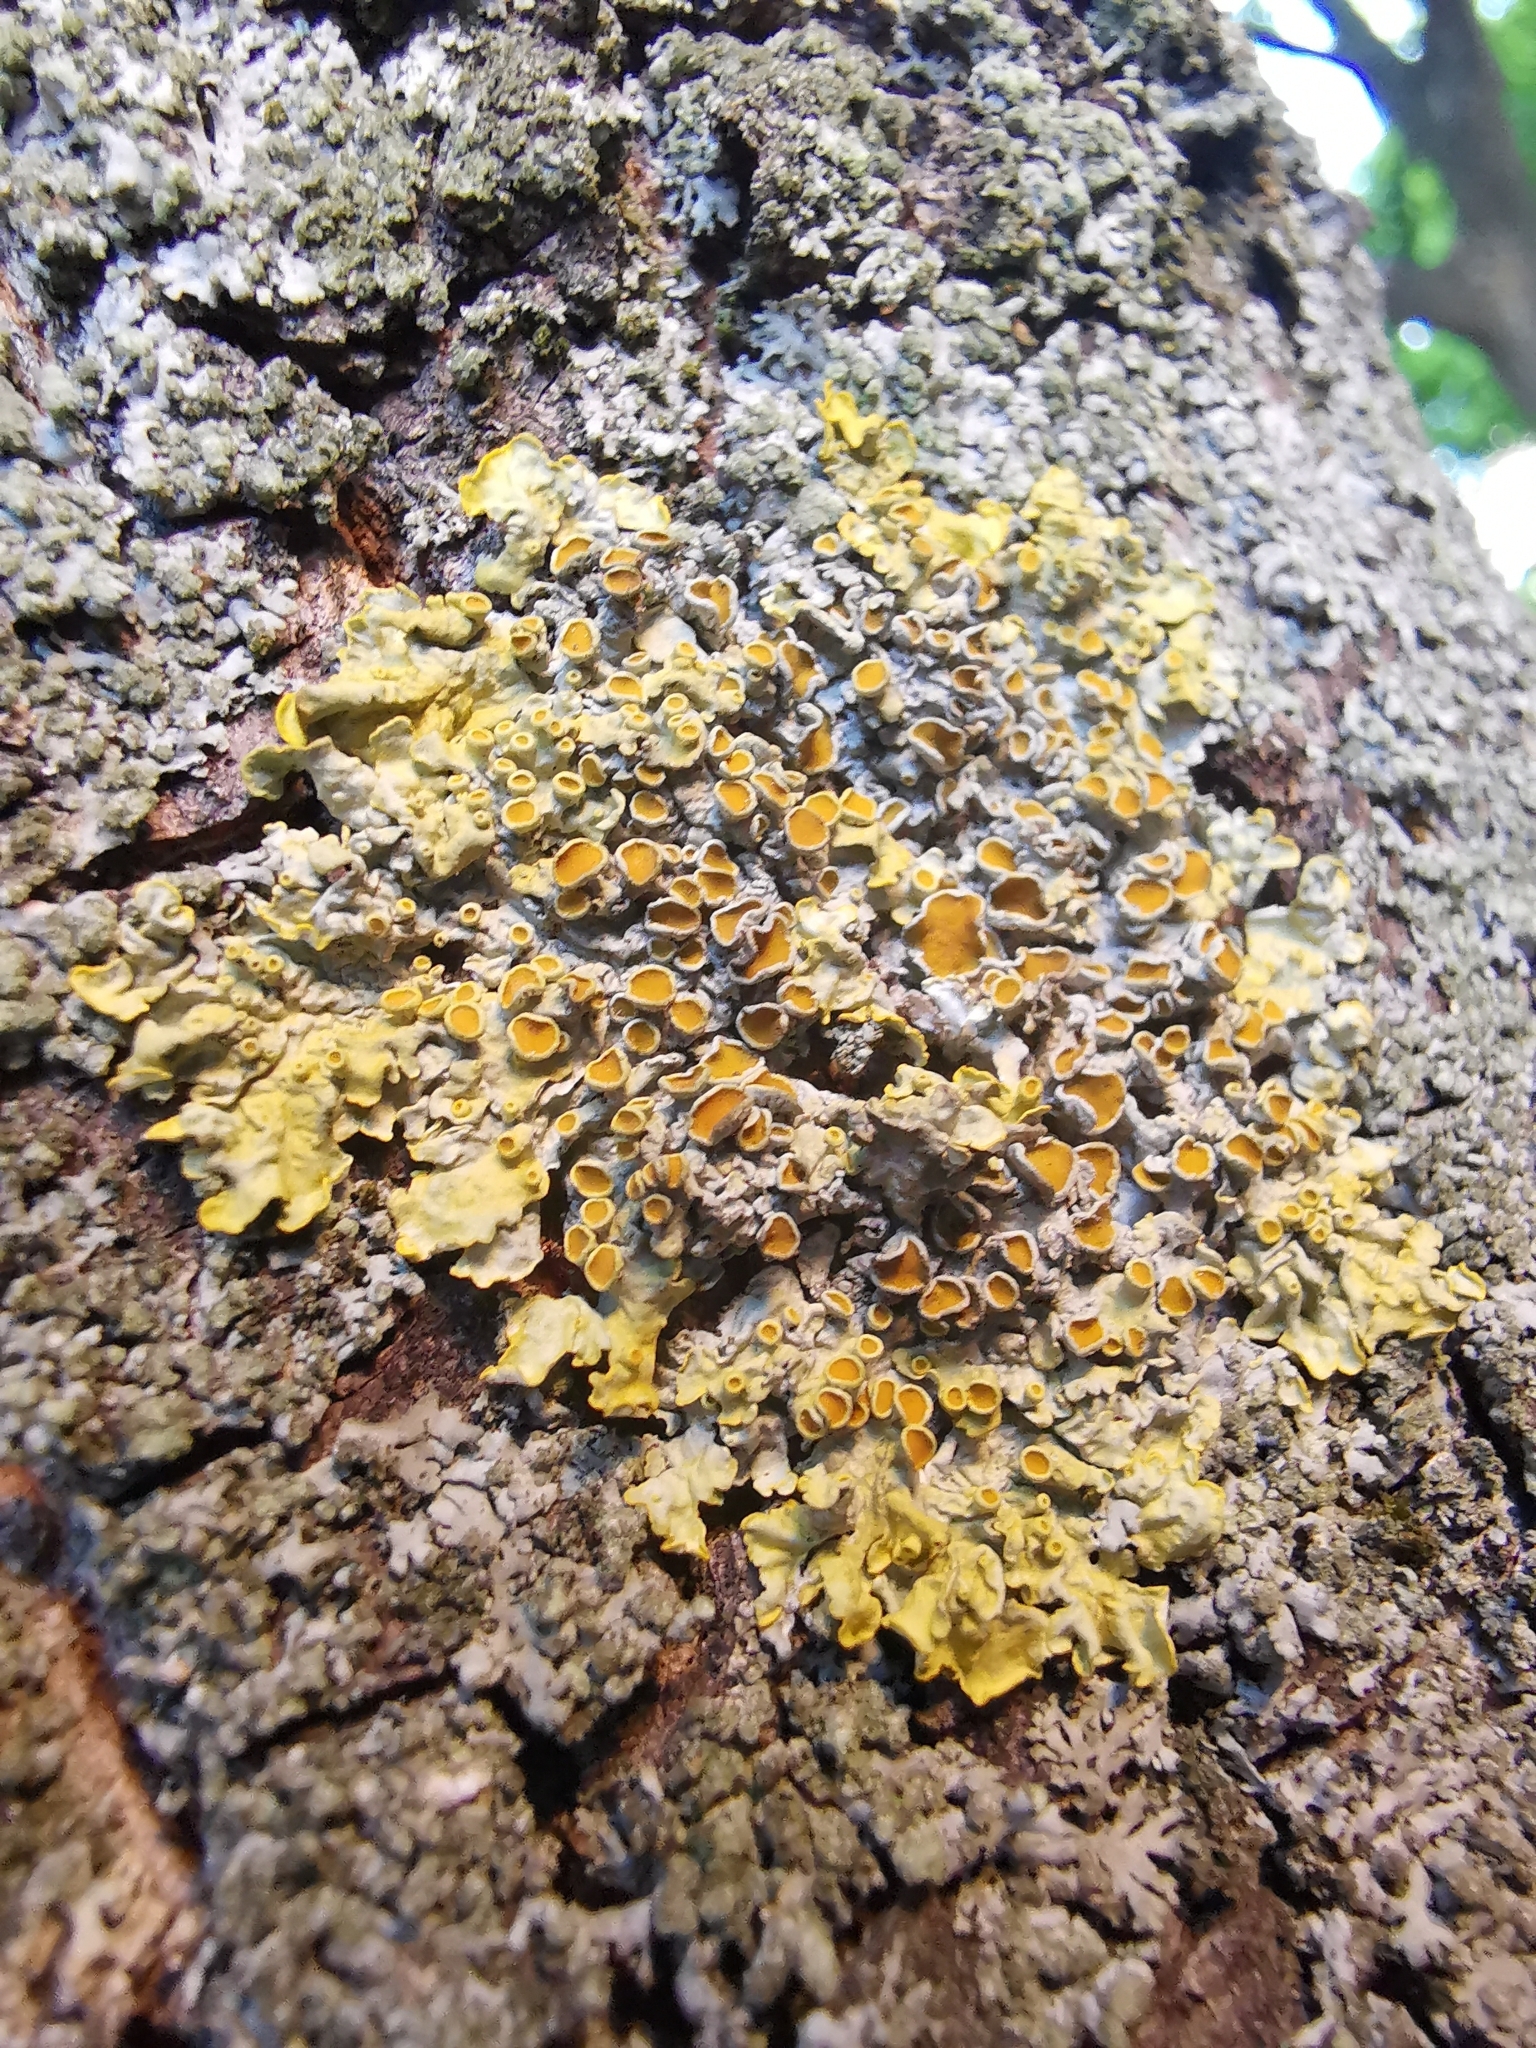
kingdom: Fungi
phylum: Ascomycota
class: Lecanoromycetes
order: Teloschistales
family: Teloschistaceae
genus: Xanthoria
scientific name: Xanthoria parietina
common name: Common orange lichen
